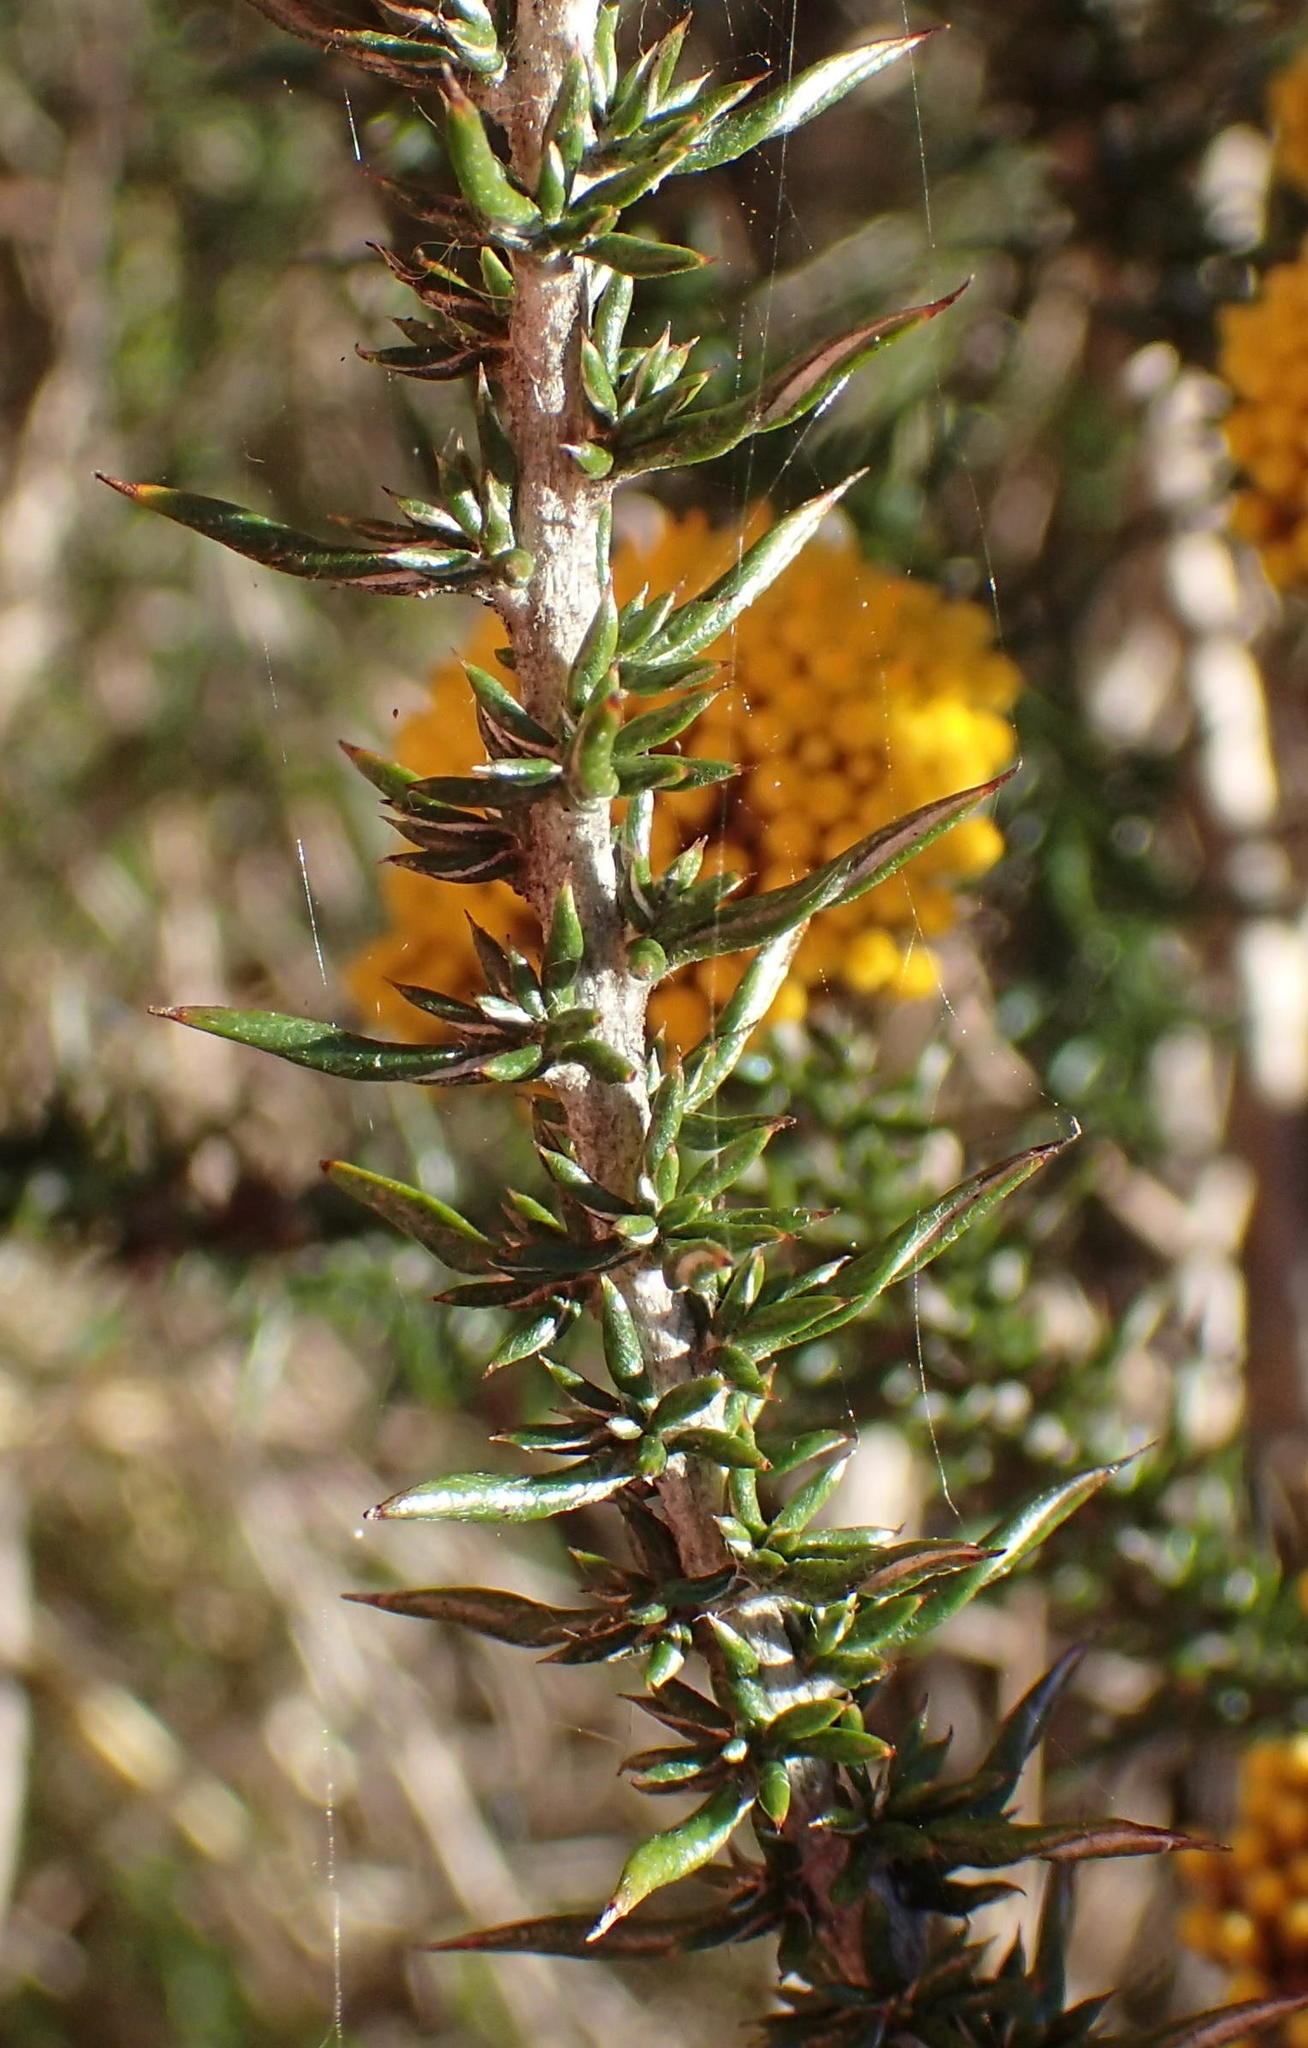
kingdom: Plantae
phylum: Tracheophyta
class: Magnoliopsida
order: Asterales
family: Asteraceae
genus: Metalasia
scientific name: Metalasia aurea
